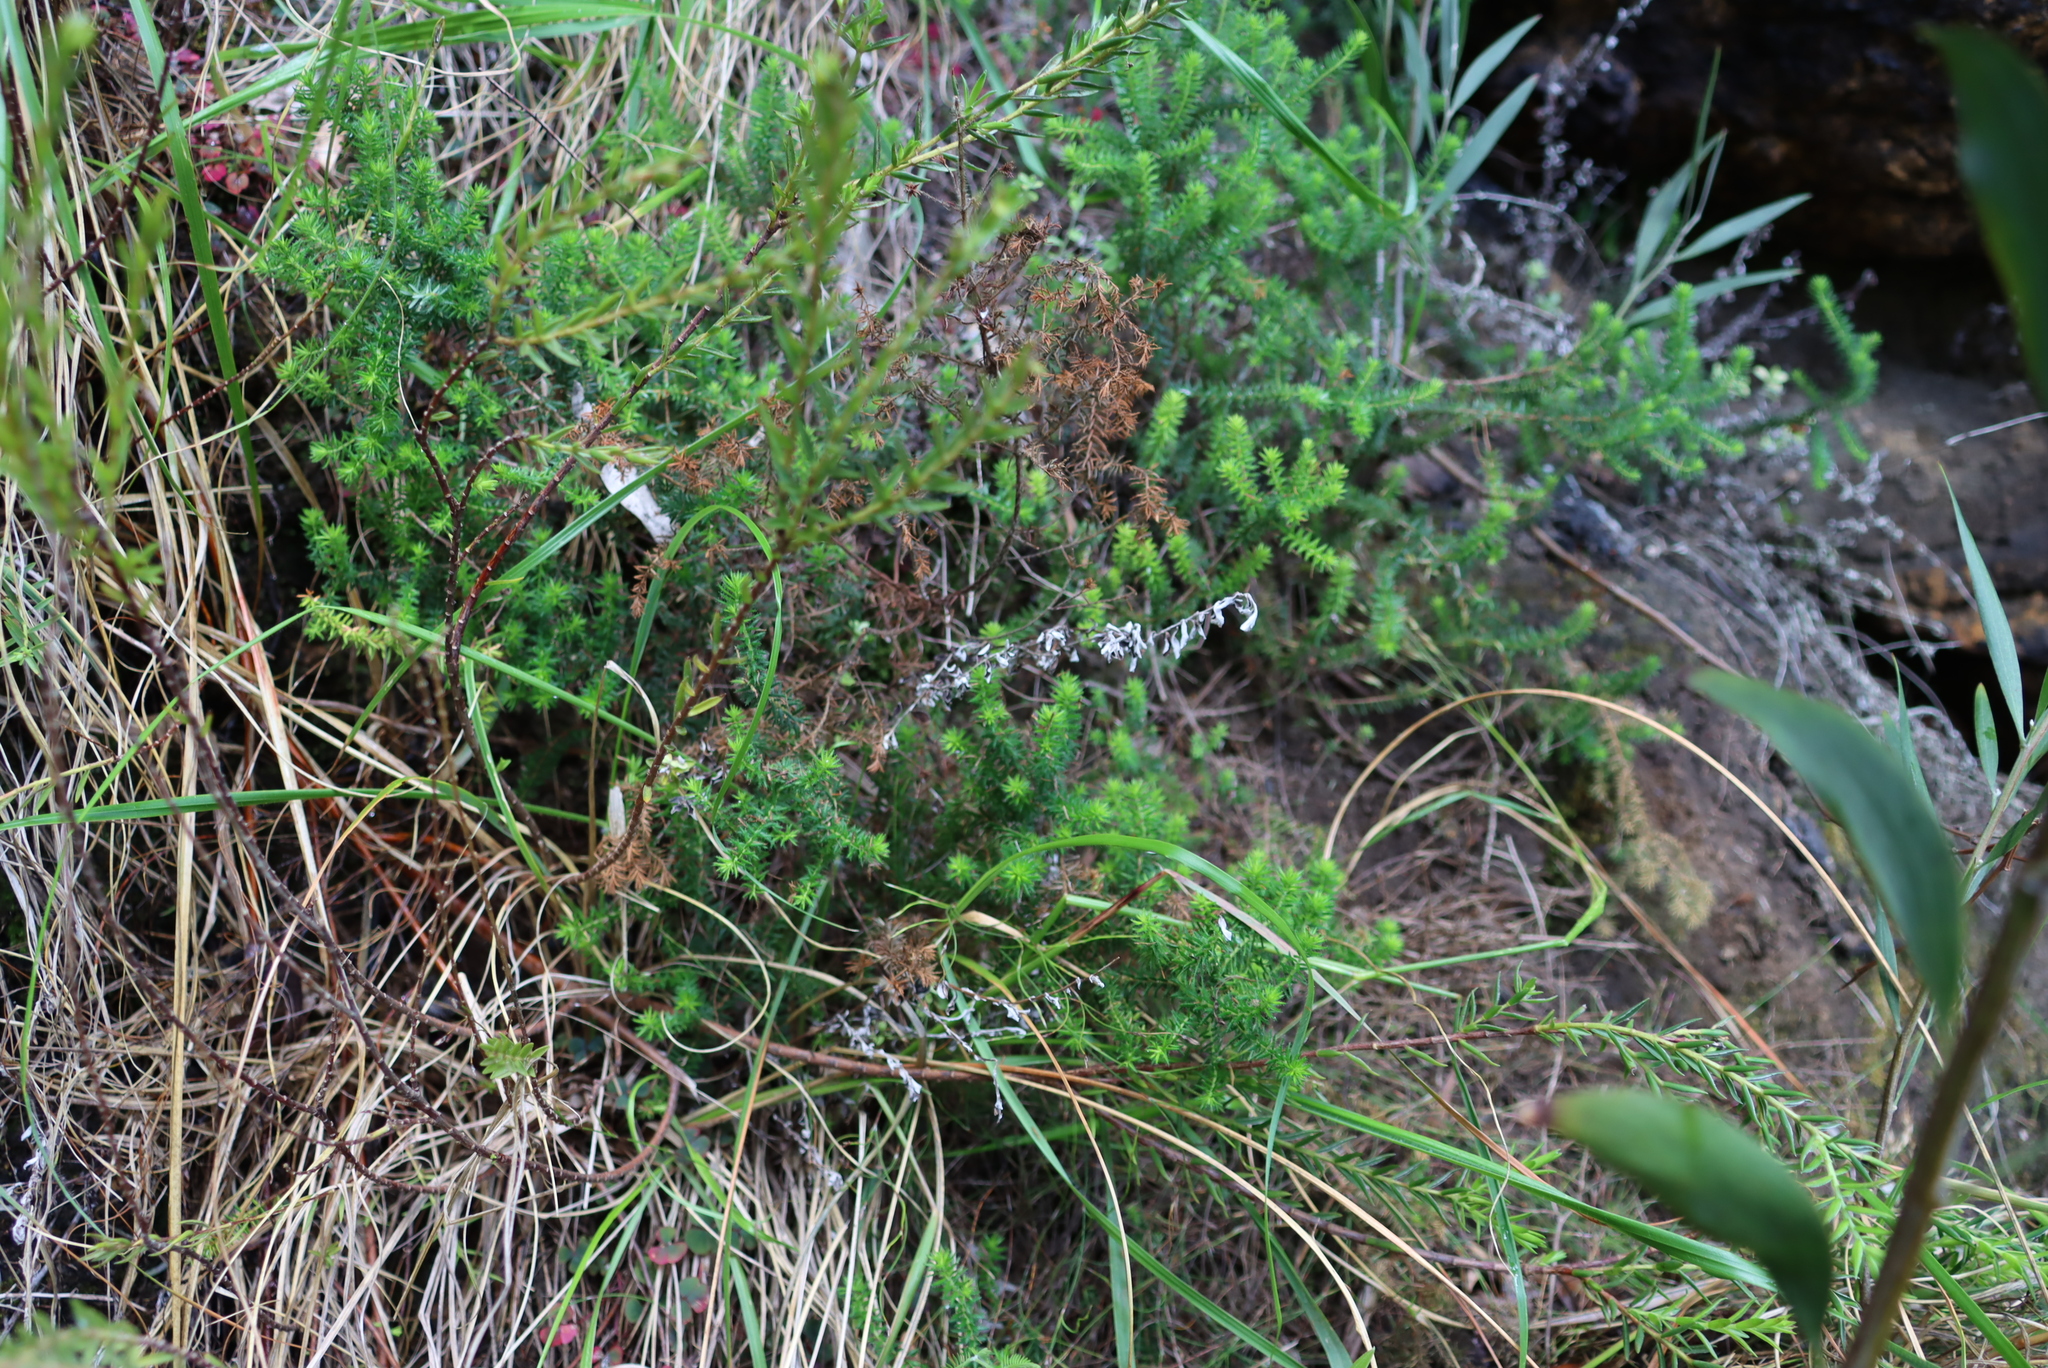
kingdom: Plantae
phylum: Tracheophyta
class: Magnoliopsida
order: Ericales
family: Ericaceae
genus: Erica
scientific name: Erica strigosa
